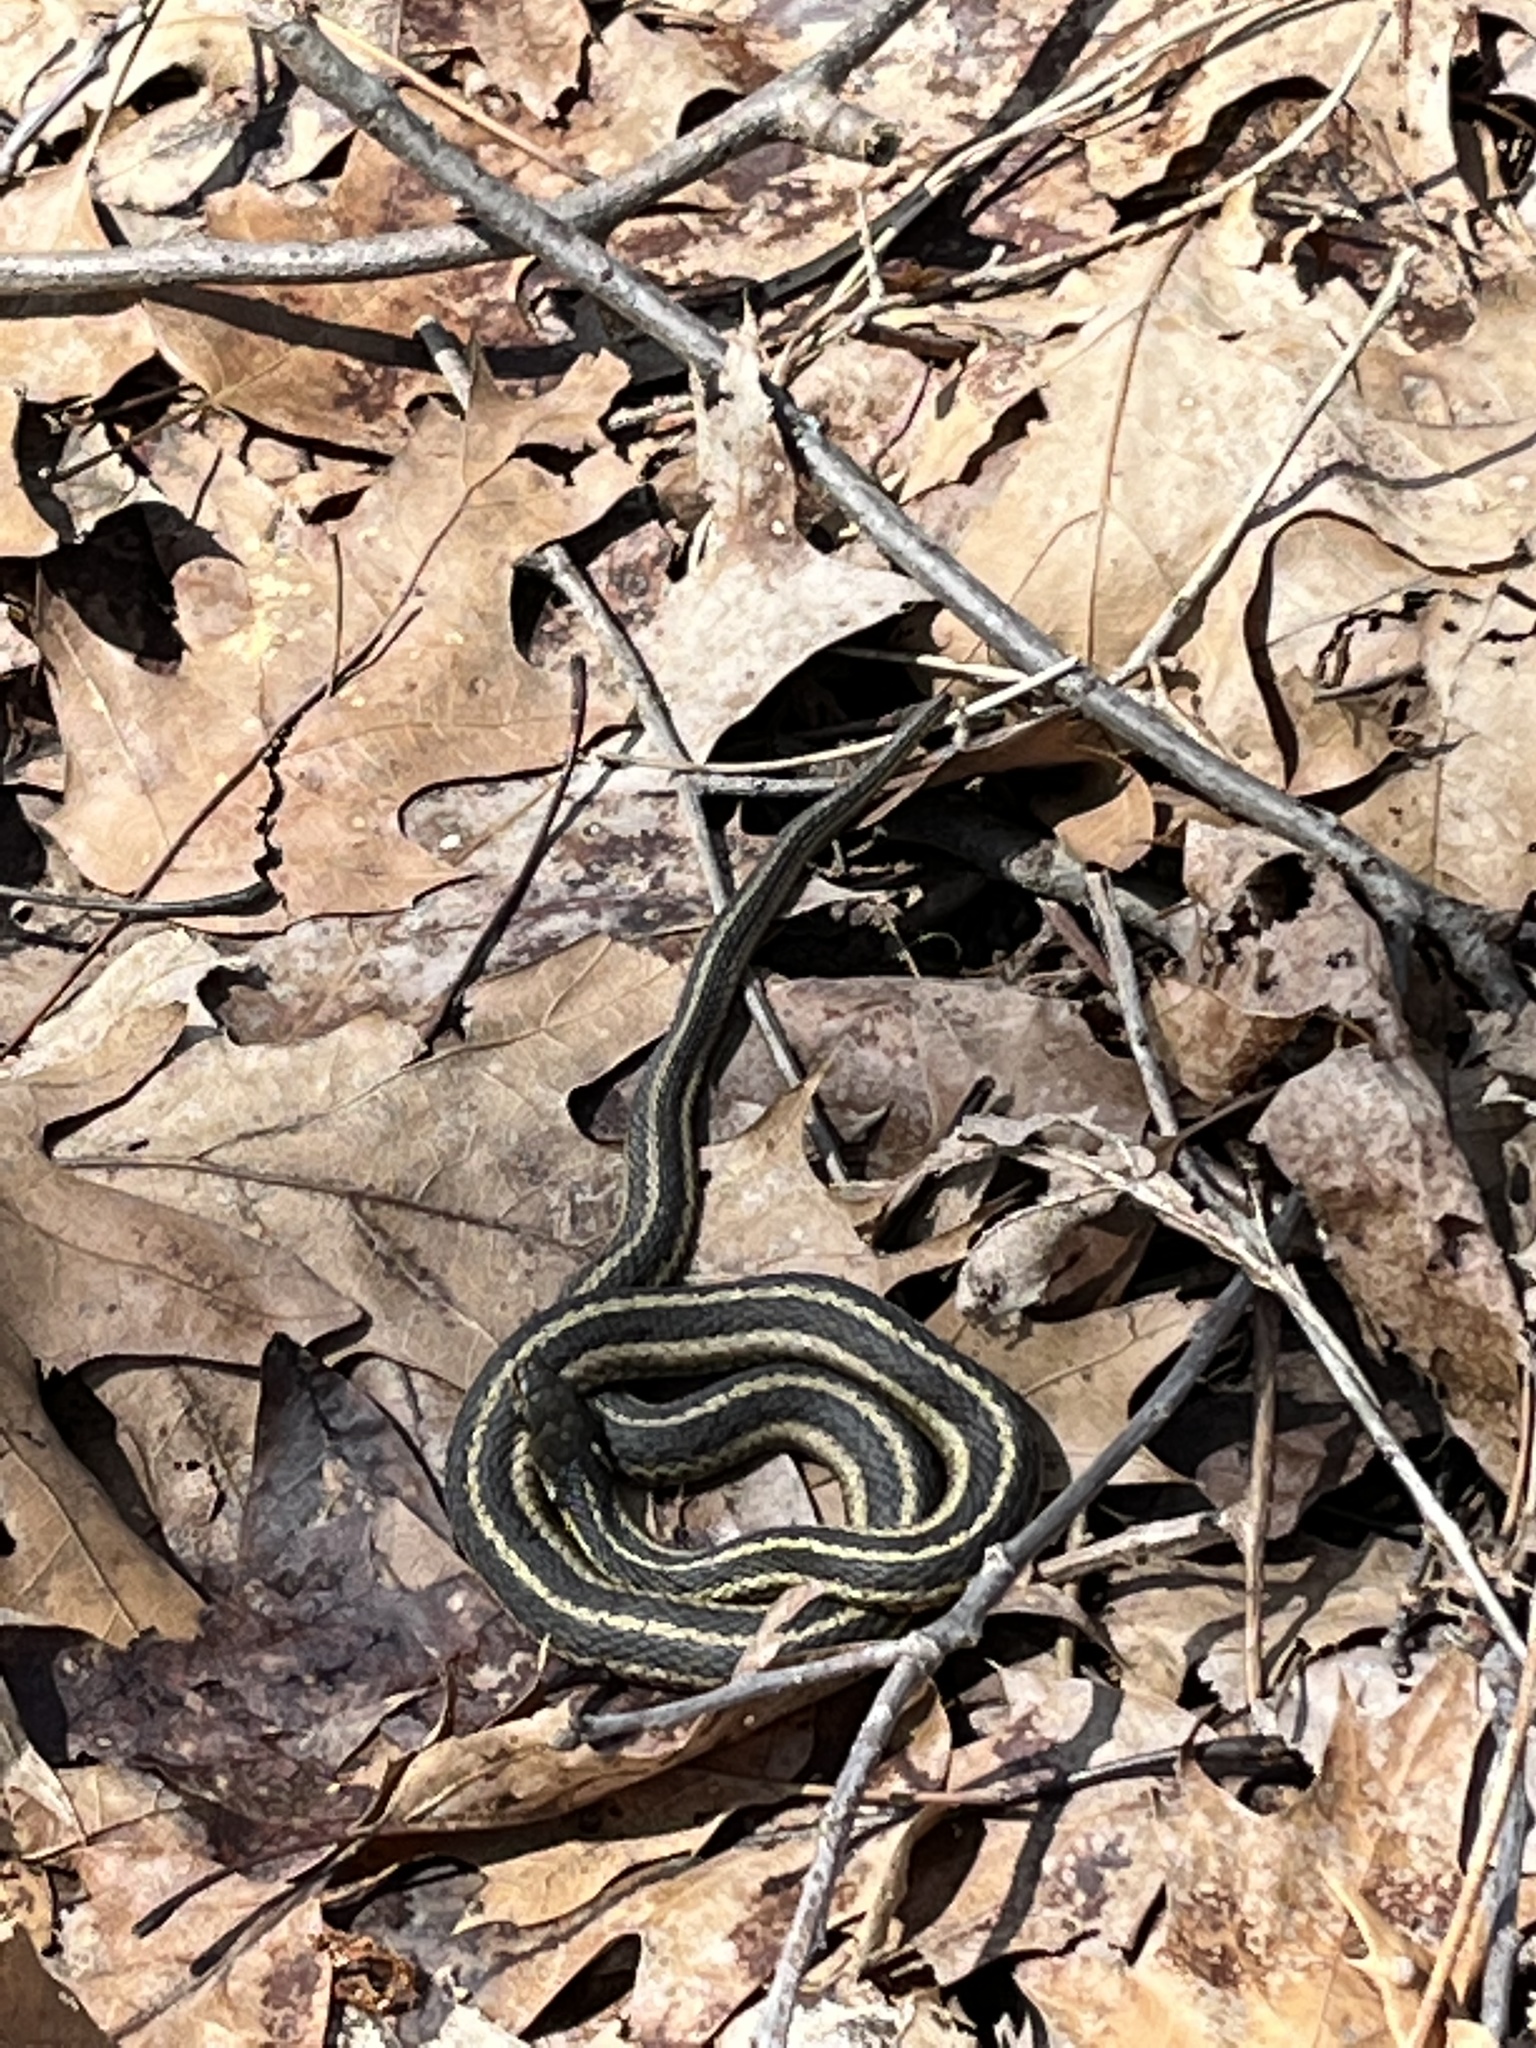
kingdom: Animalia
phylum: Chordata
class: Squamata
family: Colubridae
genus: Thamnophis
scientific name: Thamnophis sirtalis
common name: Common garter snake
